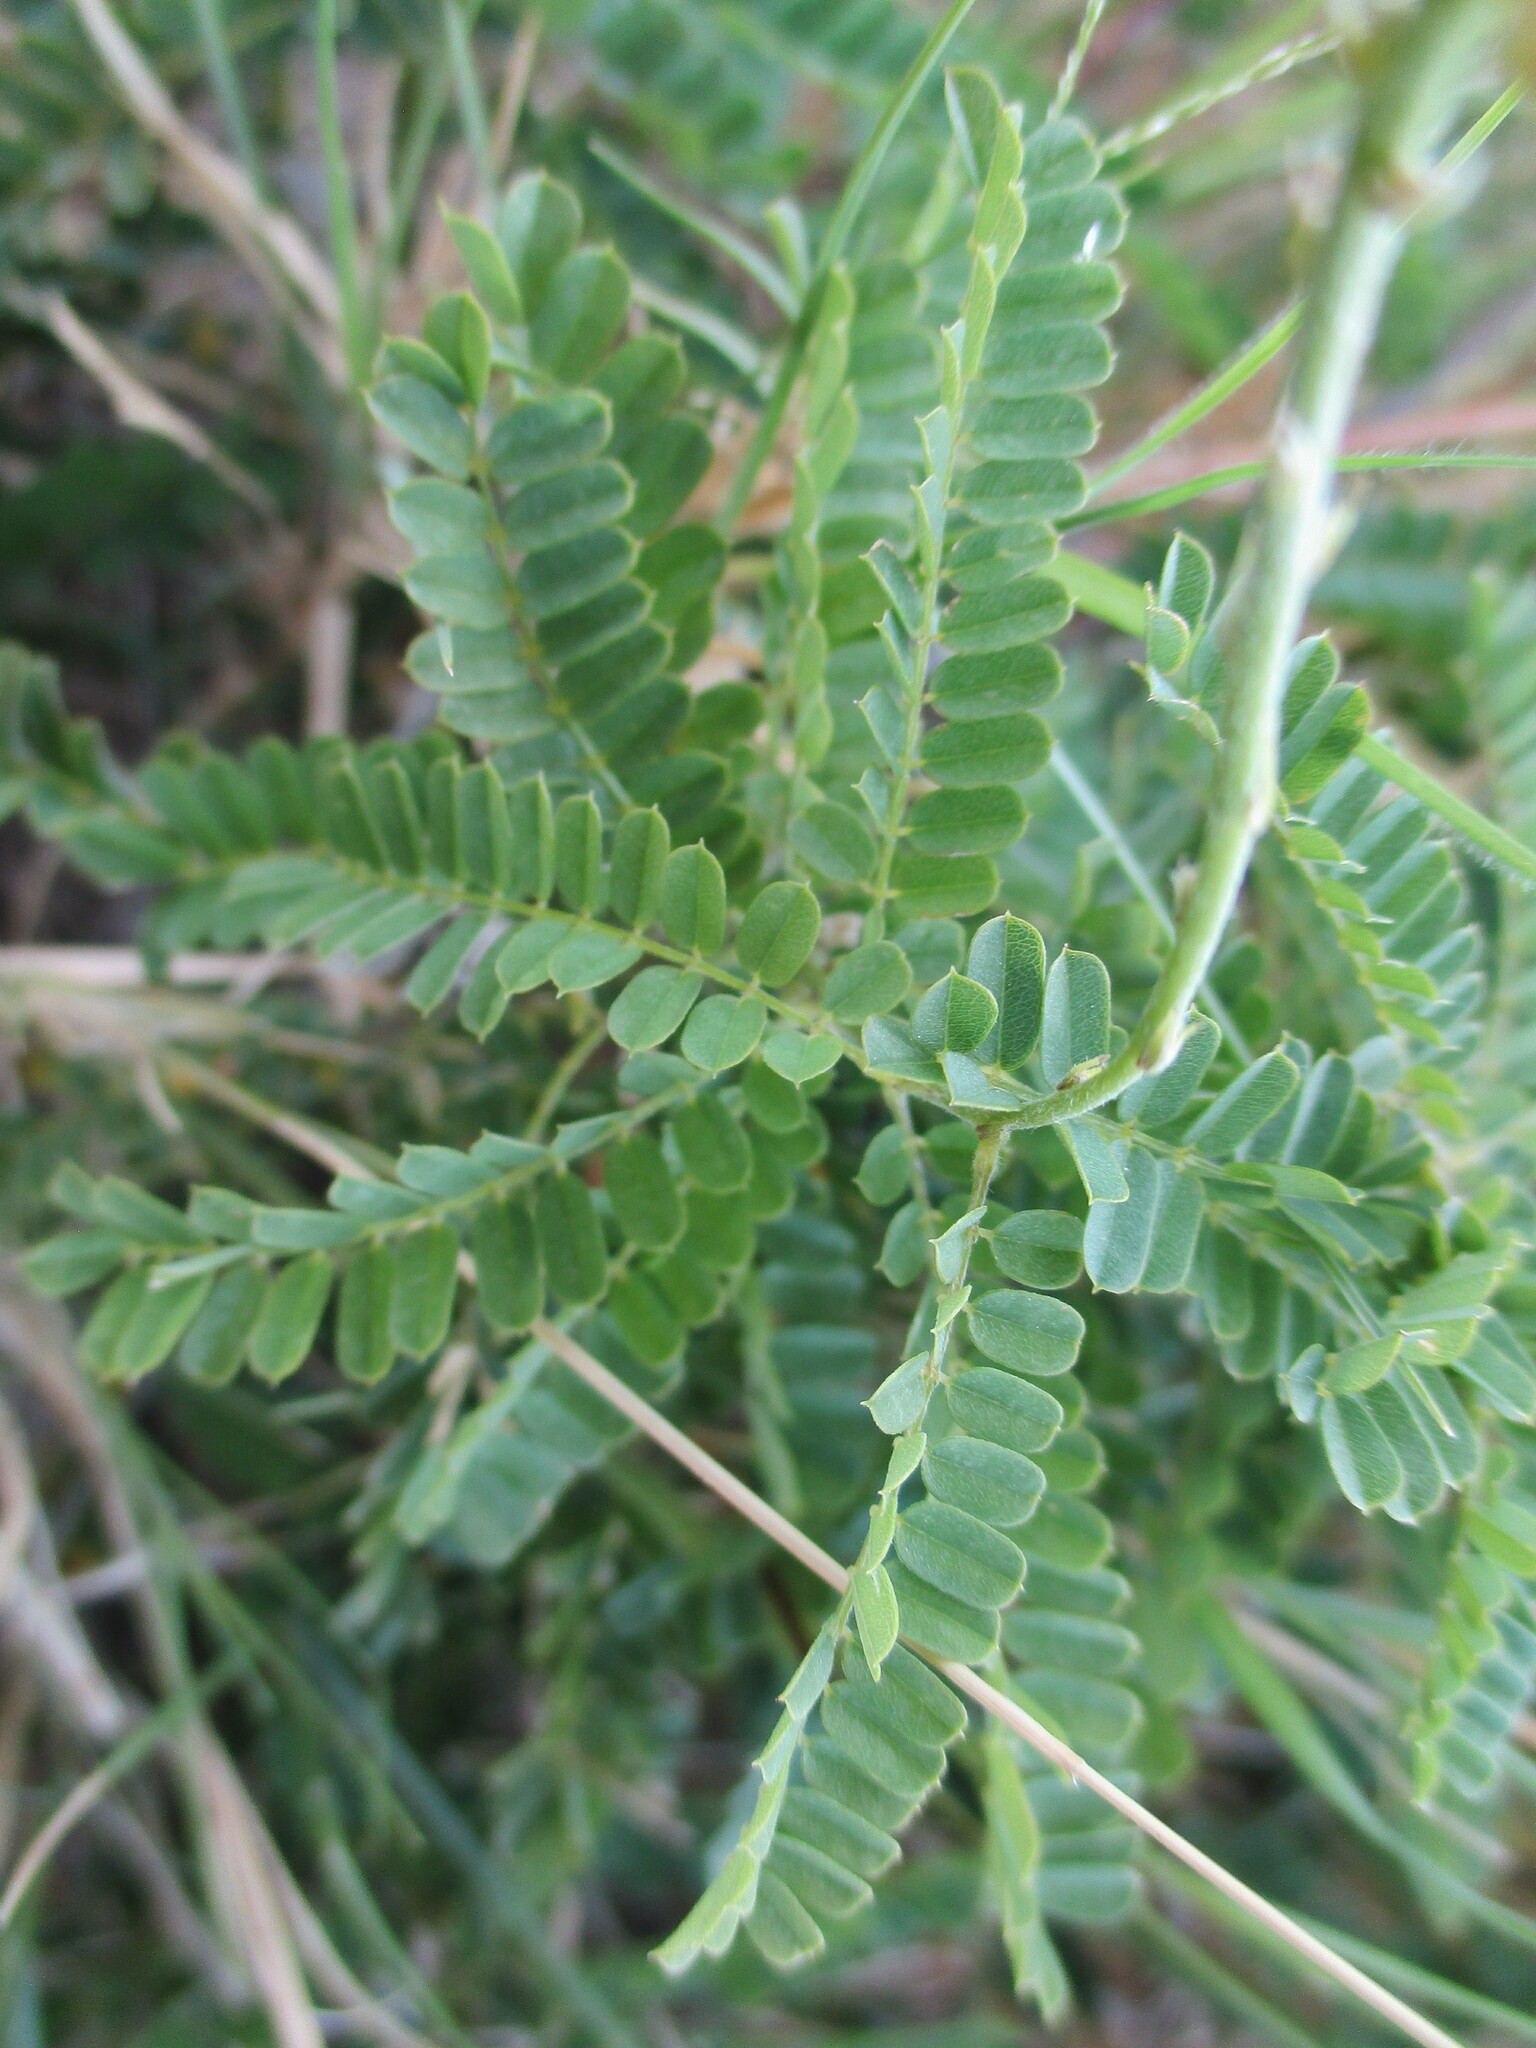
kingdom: Plantae
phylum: Tracheophyta
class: Magnoliopsida
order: Fabales
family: Fabaceae
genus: Abrus
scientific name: Abrus precatorius
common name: Rosarypea
